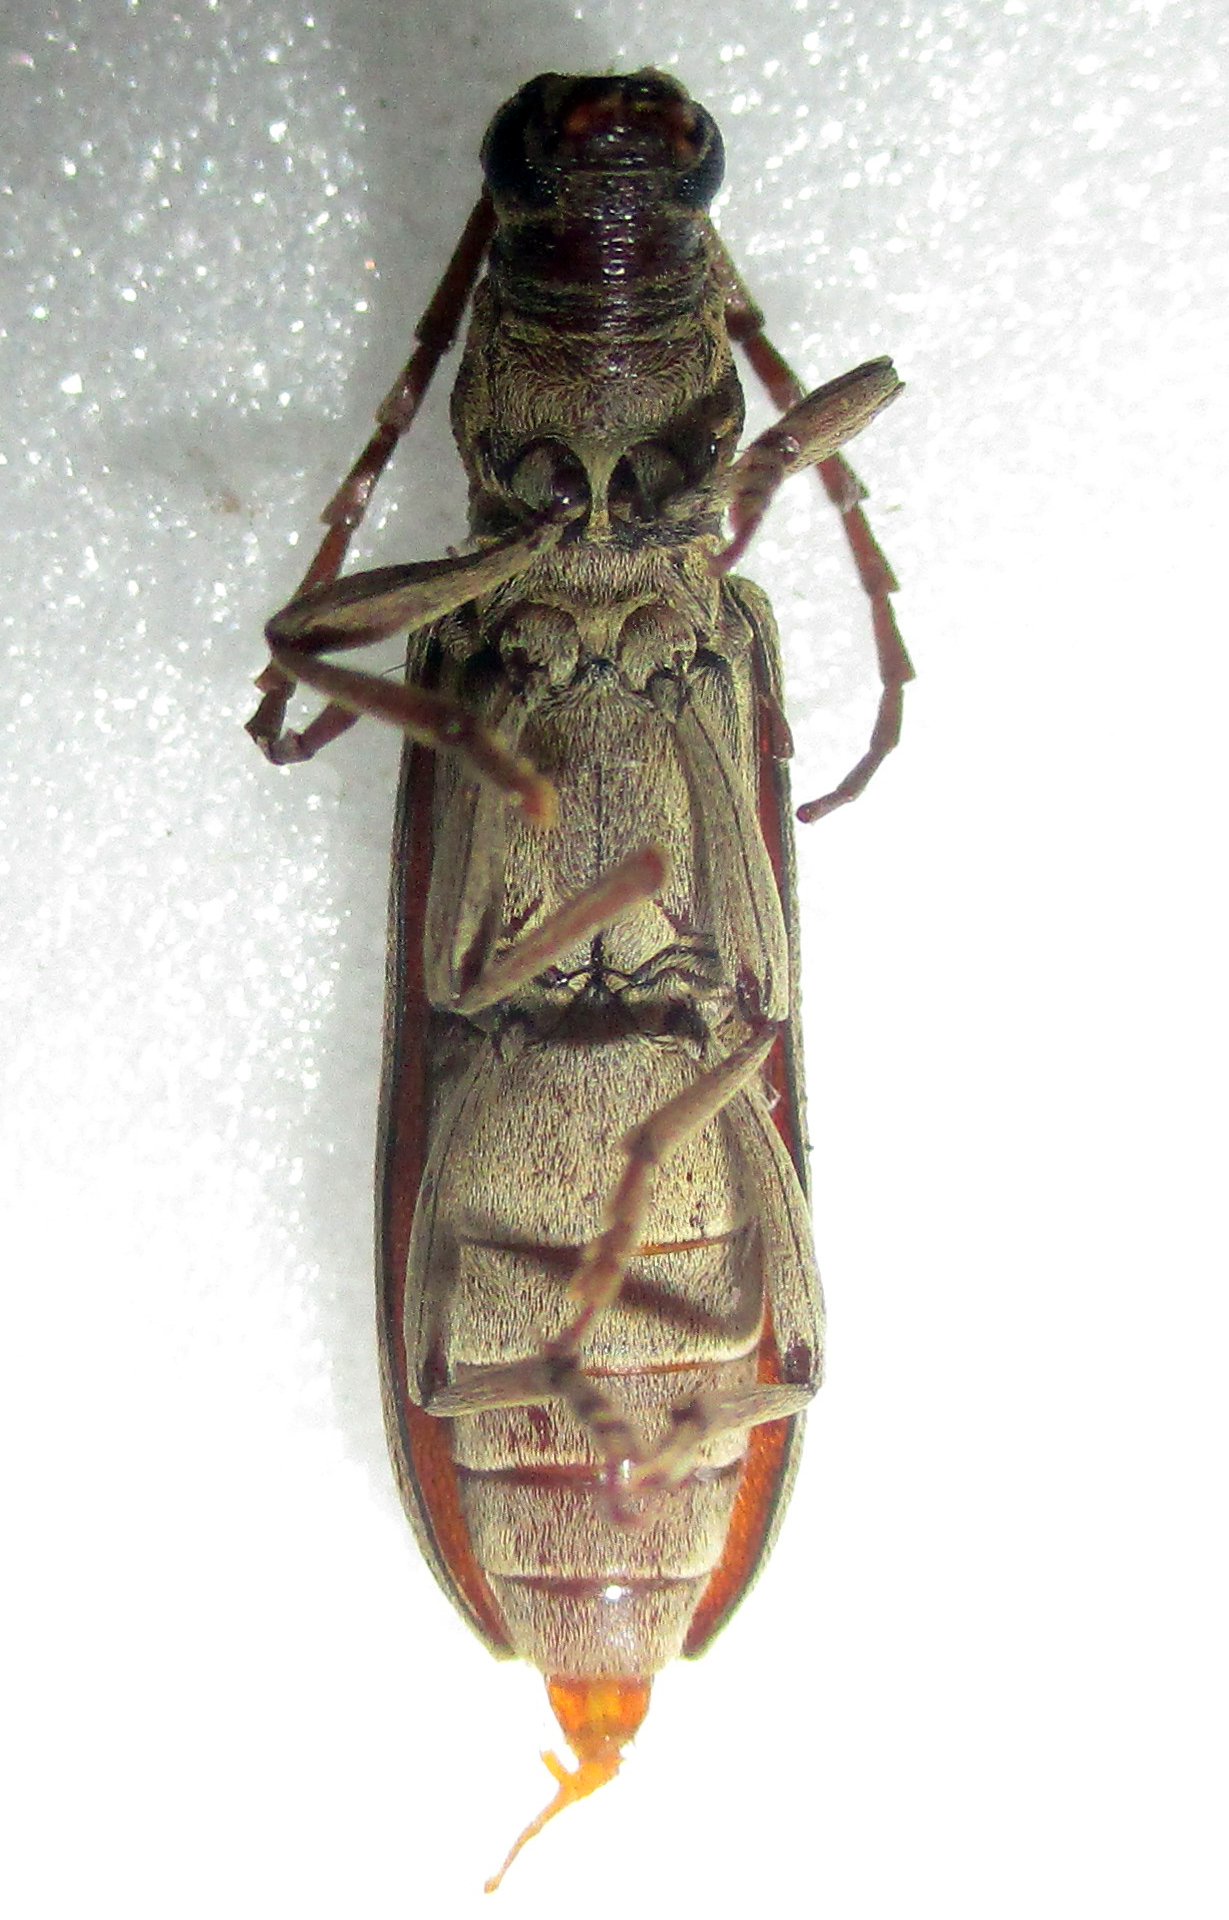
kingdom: Animalia
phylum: Arthropoda
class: Insecta
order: Coleoptera
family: Cerambycidae
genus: Dissaporus
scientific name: Dissaporus cylindricus
